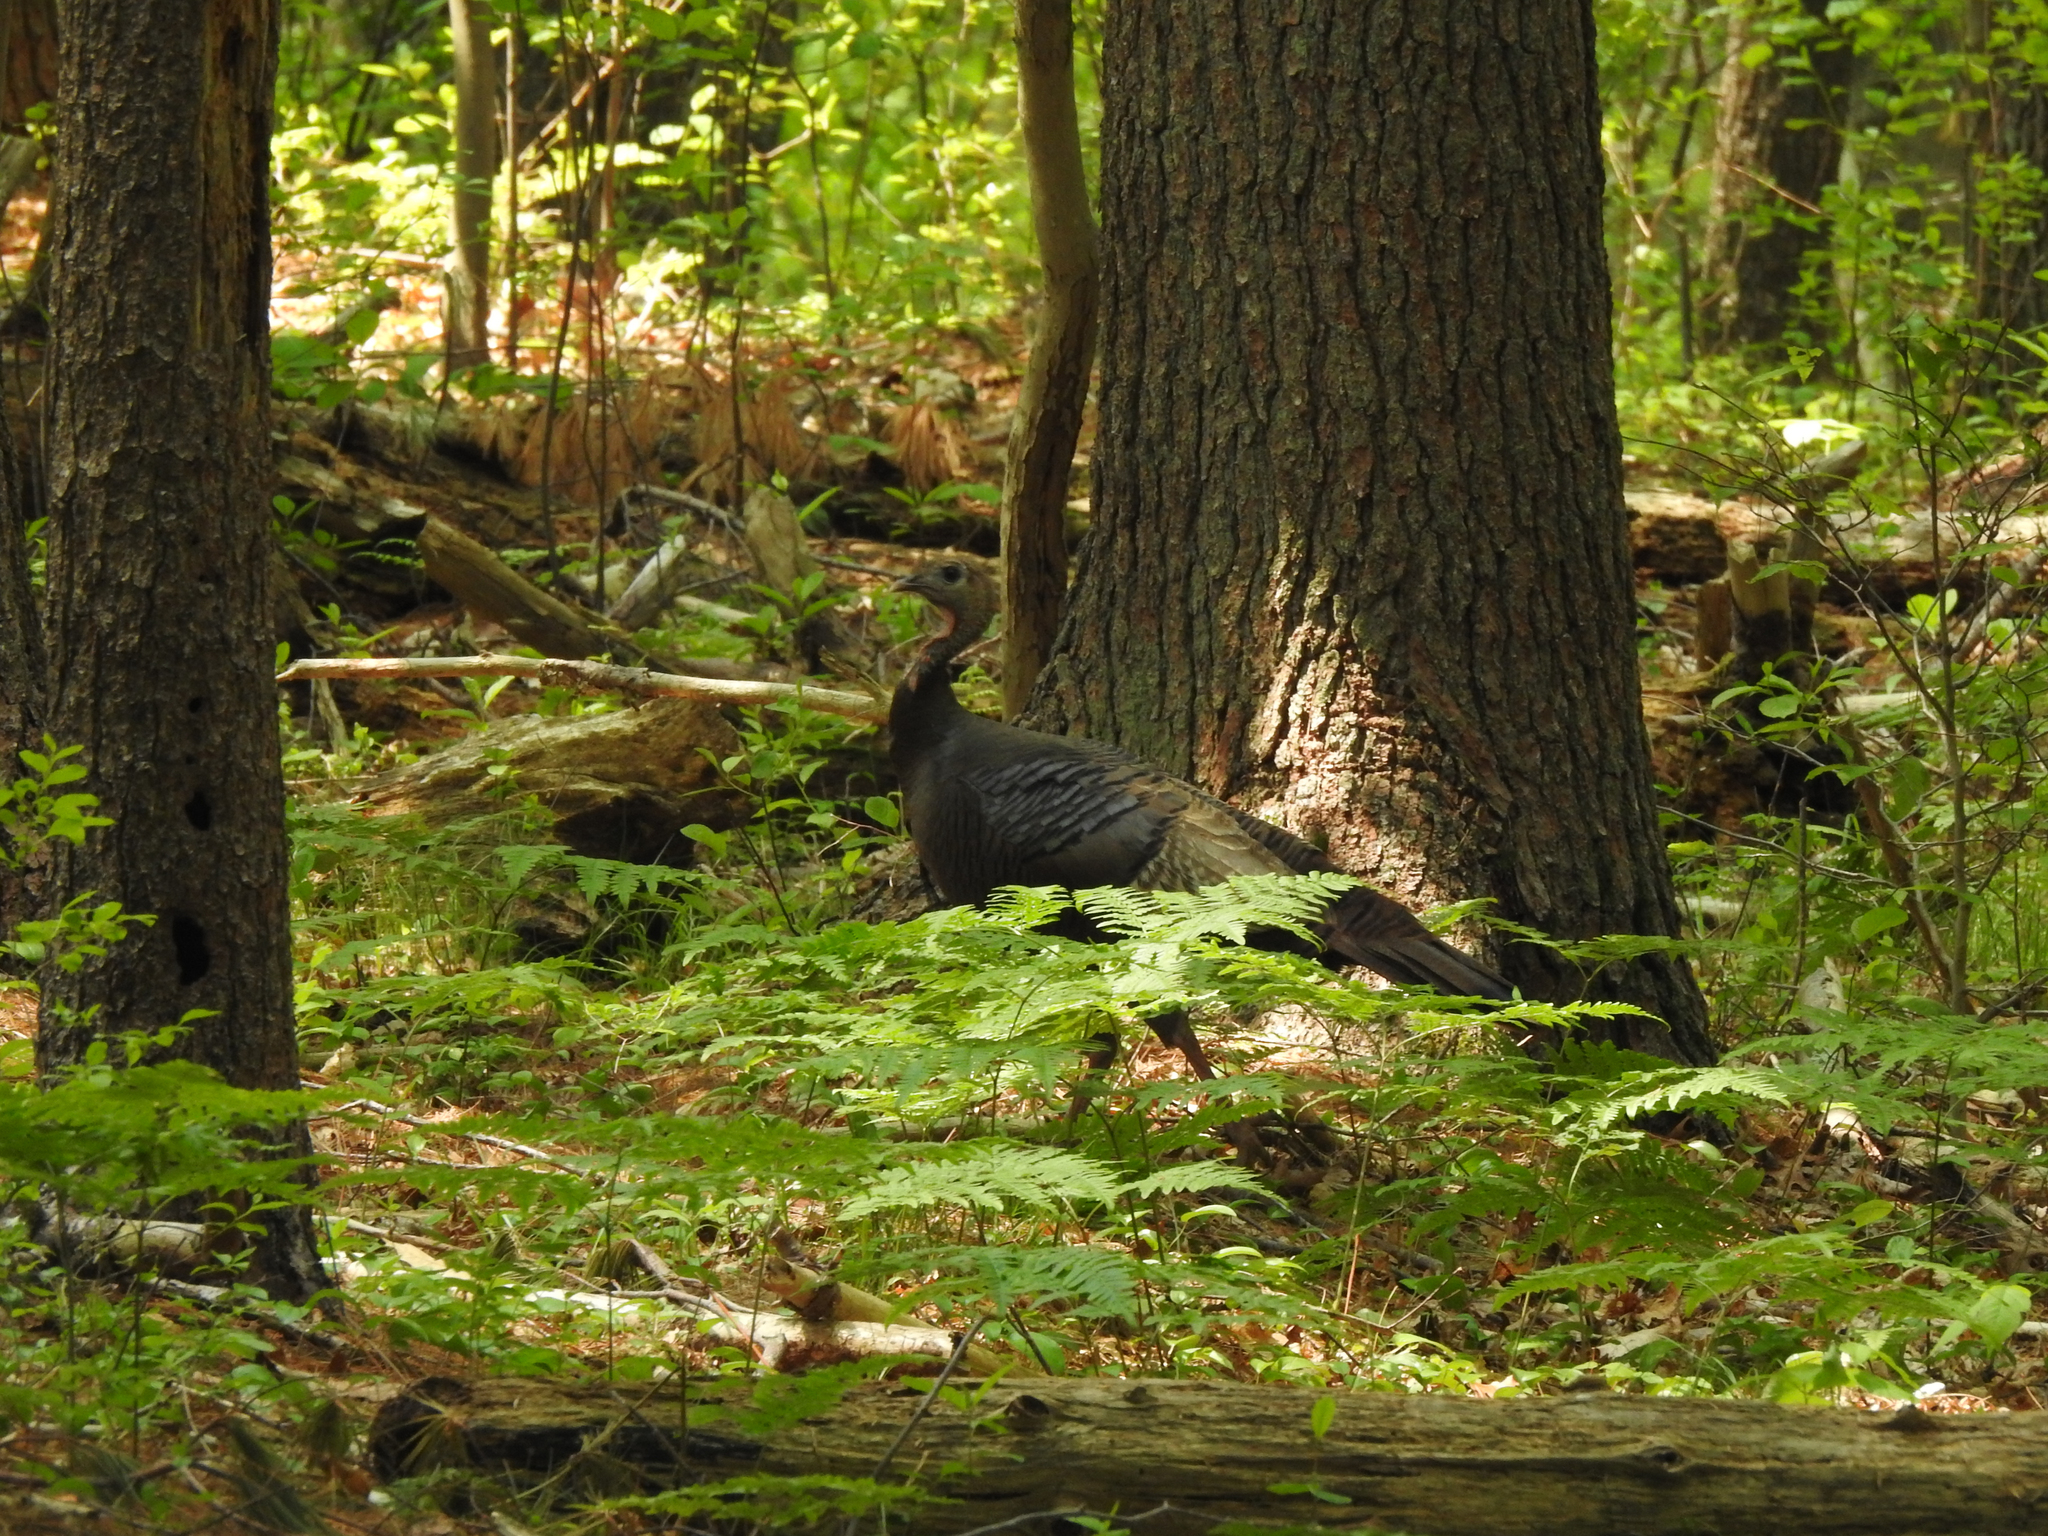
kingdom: Animalia
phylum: Chordata
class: Aves
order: Galliformes
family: Phasianidae
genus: Meleagris
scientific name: Meleagris gallopavo
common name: Wild turkey
